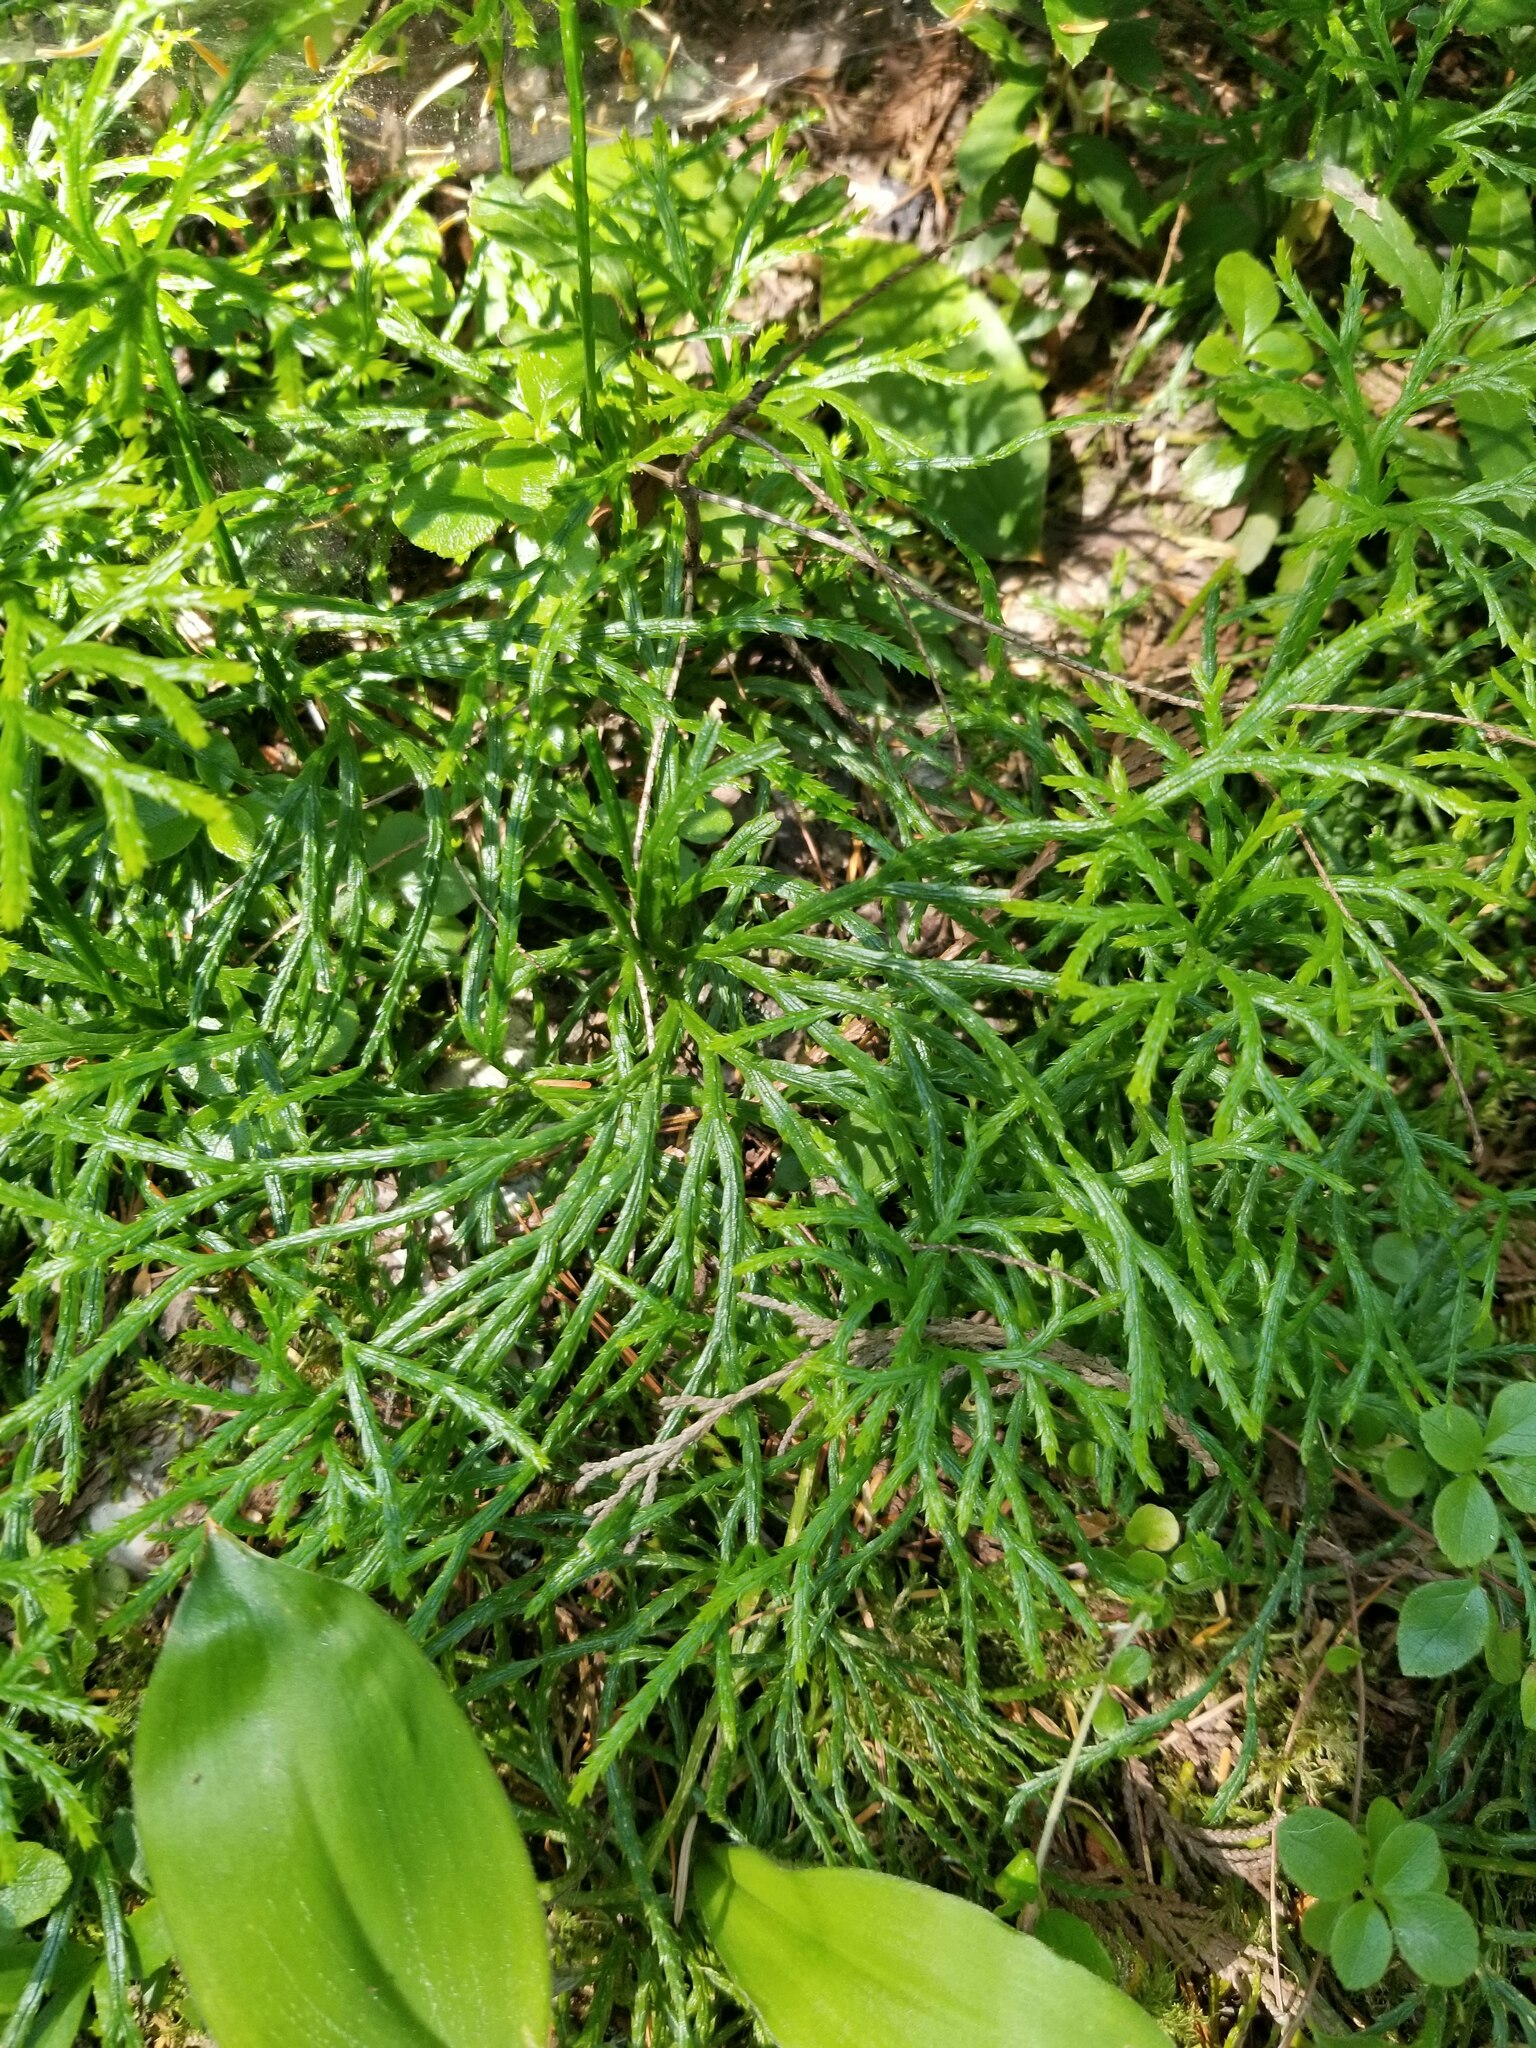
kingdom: Plantae
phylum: Tracheophyta
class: Lycopodiopsida
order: Lycopodiales
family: Lycopodiaceae
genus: Diphasiastrum
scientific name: Diphasiastrum complanatum
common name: Northern running-pine
